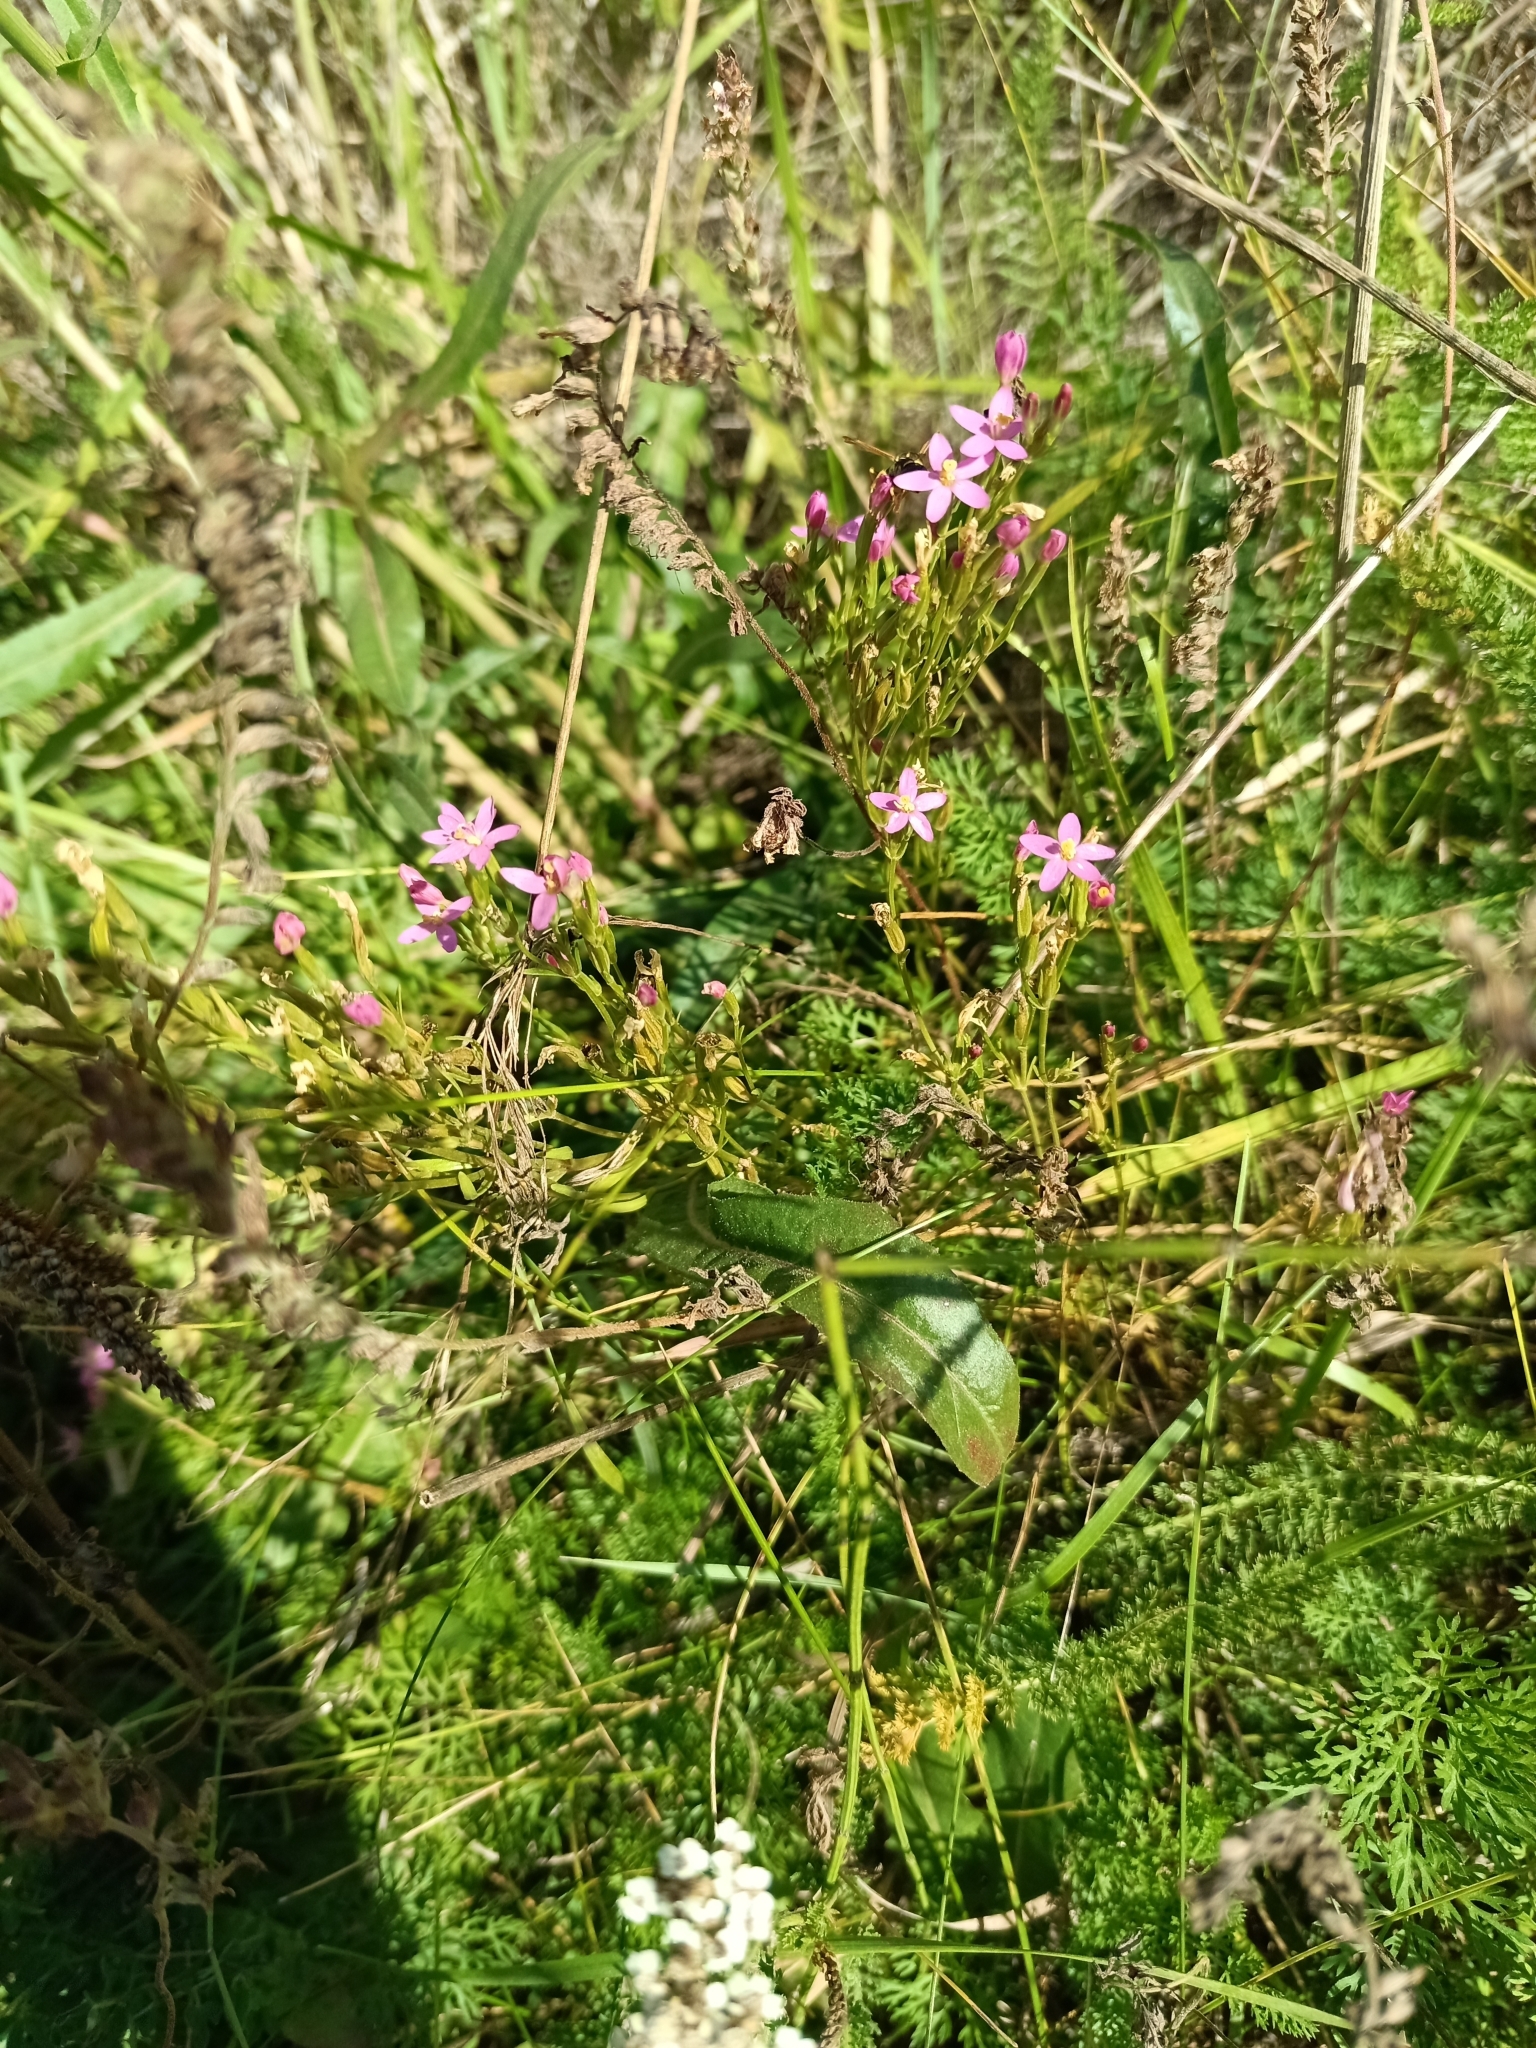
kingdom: Plantae
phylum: Tracheophyta
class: Magnoliopsida
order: Gentianales
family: Gentianaceae
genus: Centaurium
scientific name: Centaurium erythraea
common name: Common centaury
